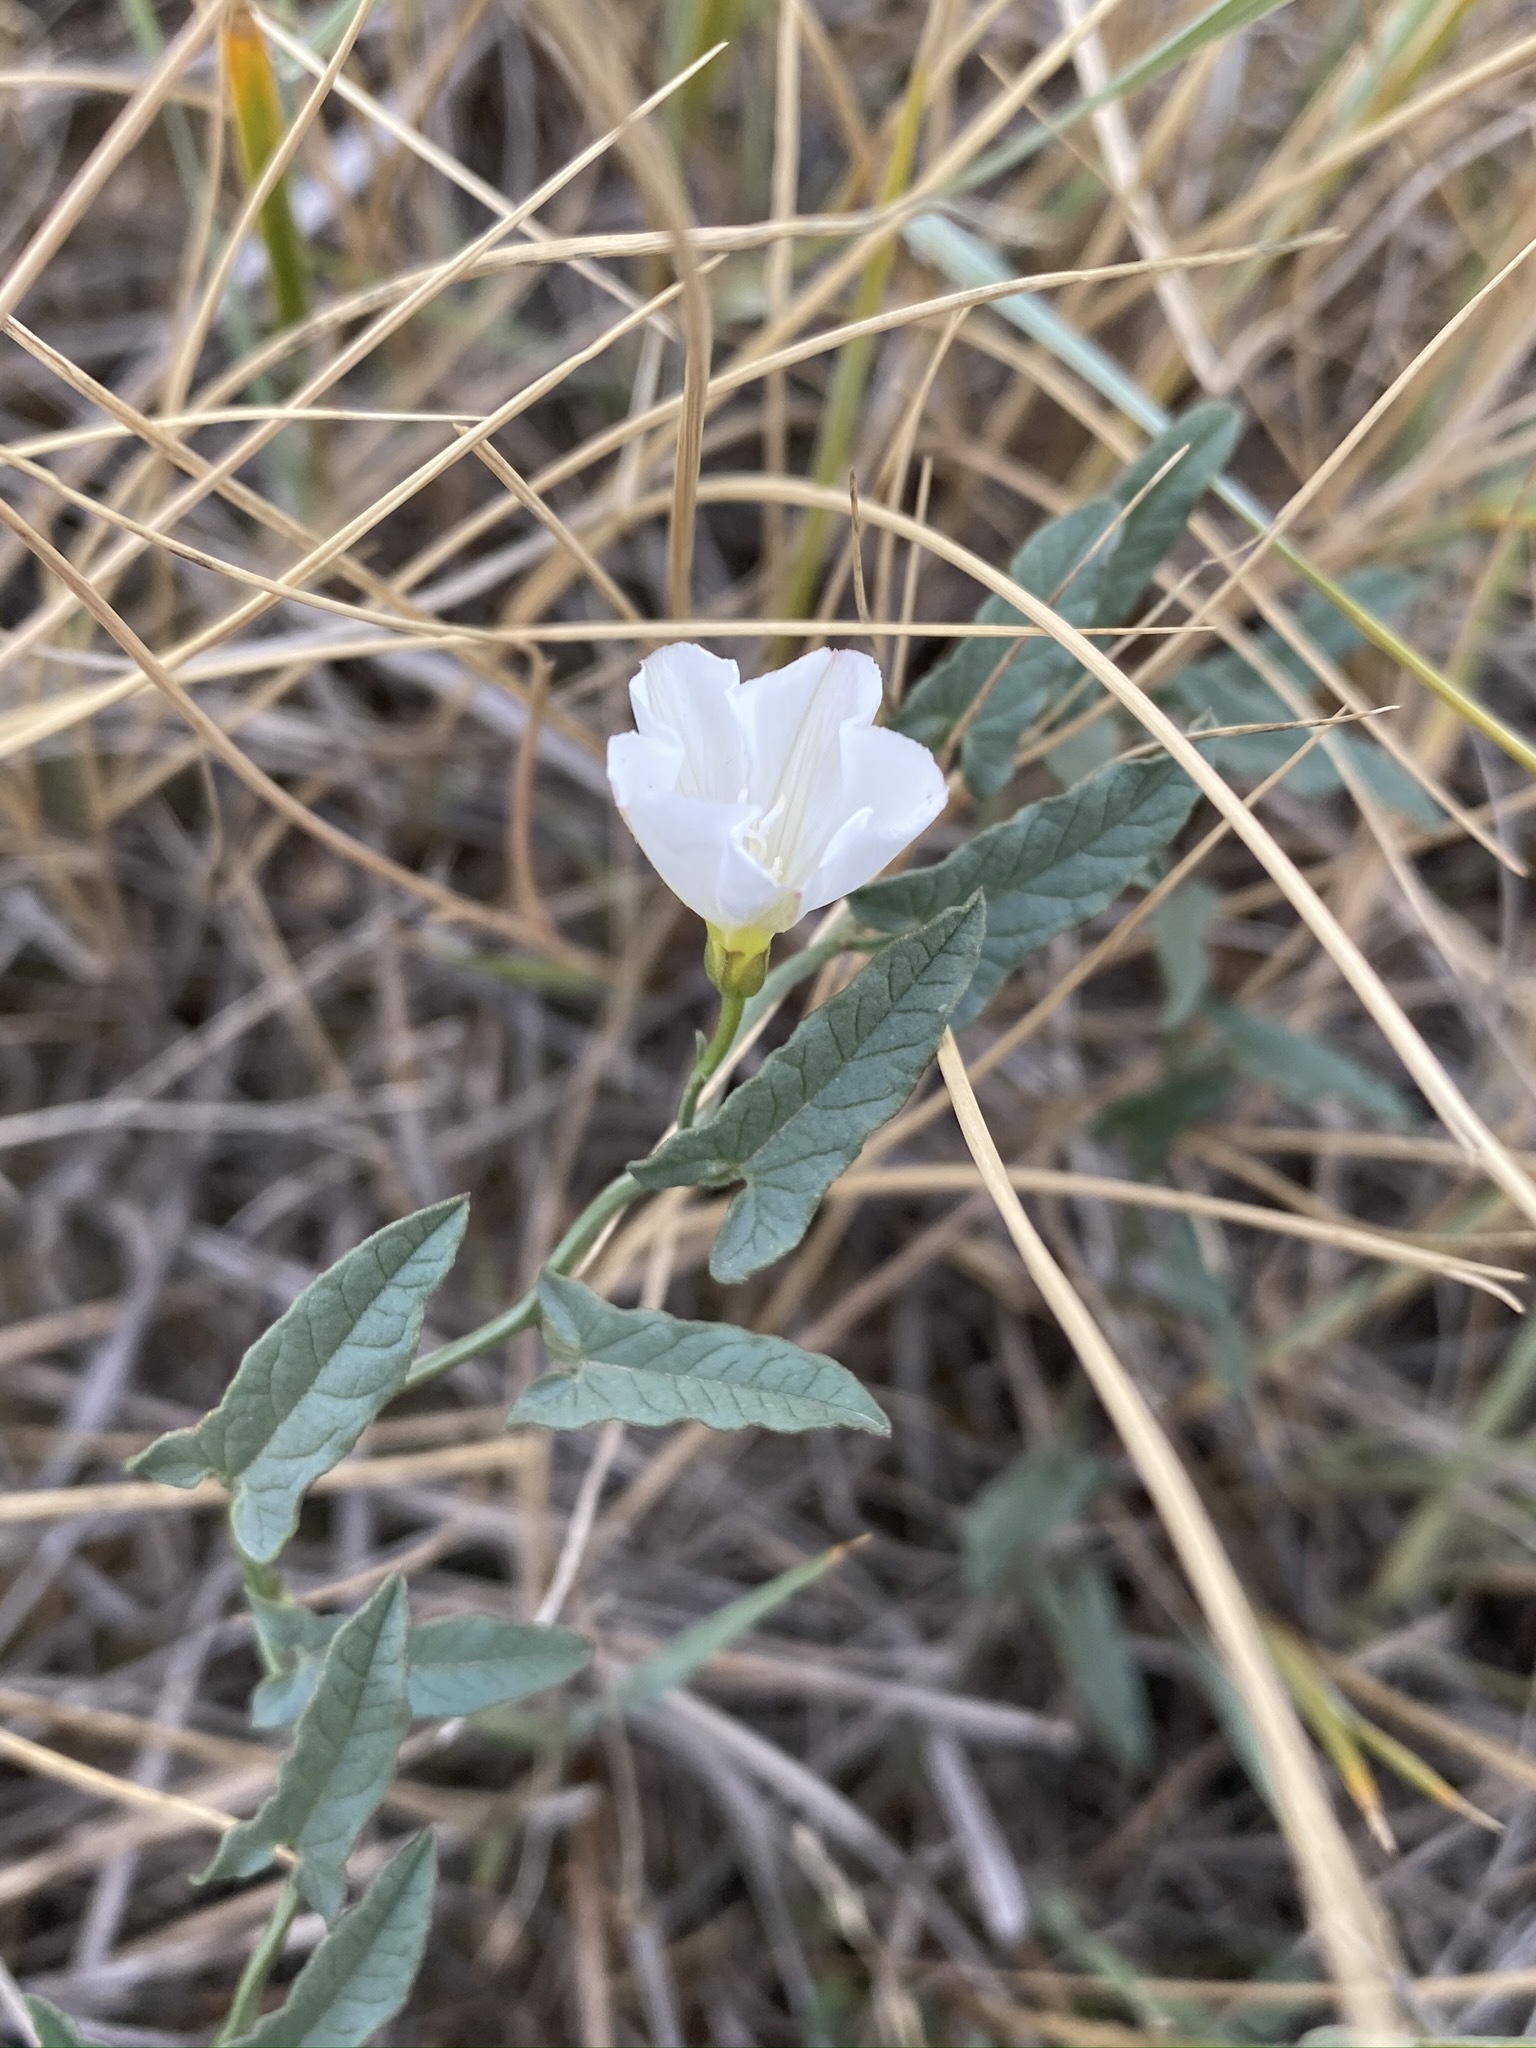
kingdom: Plantae
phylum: Tracheophyta
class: Magnoliopsida
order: Solanales
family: Convolvulaceae
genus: Convolvulus
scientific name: Convolvulus arvensis
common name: Field bindweed
